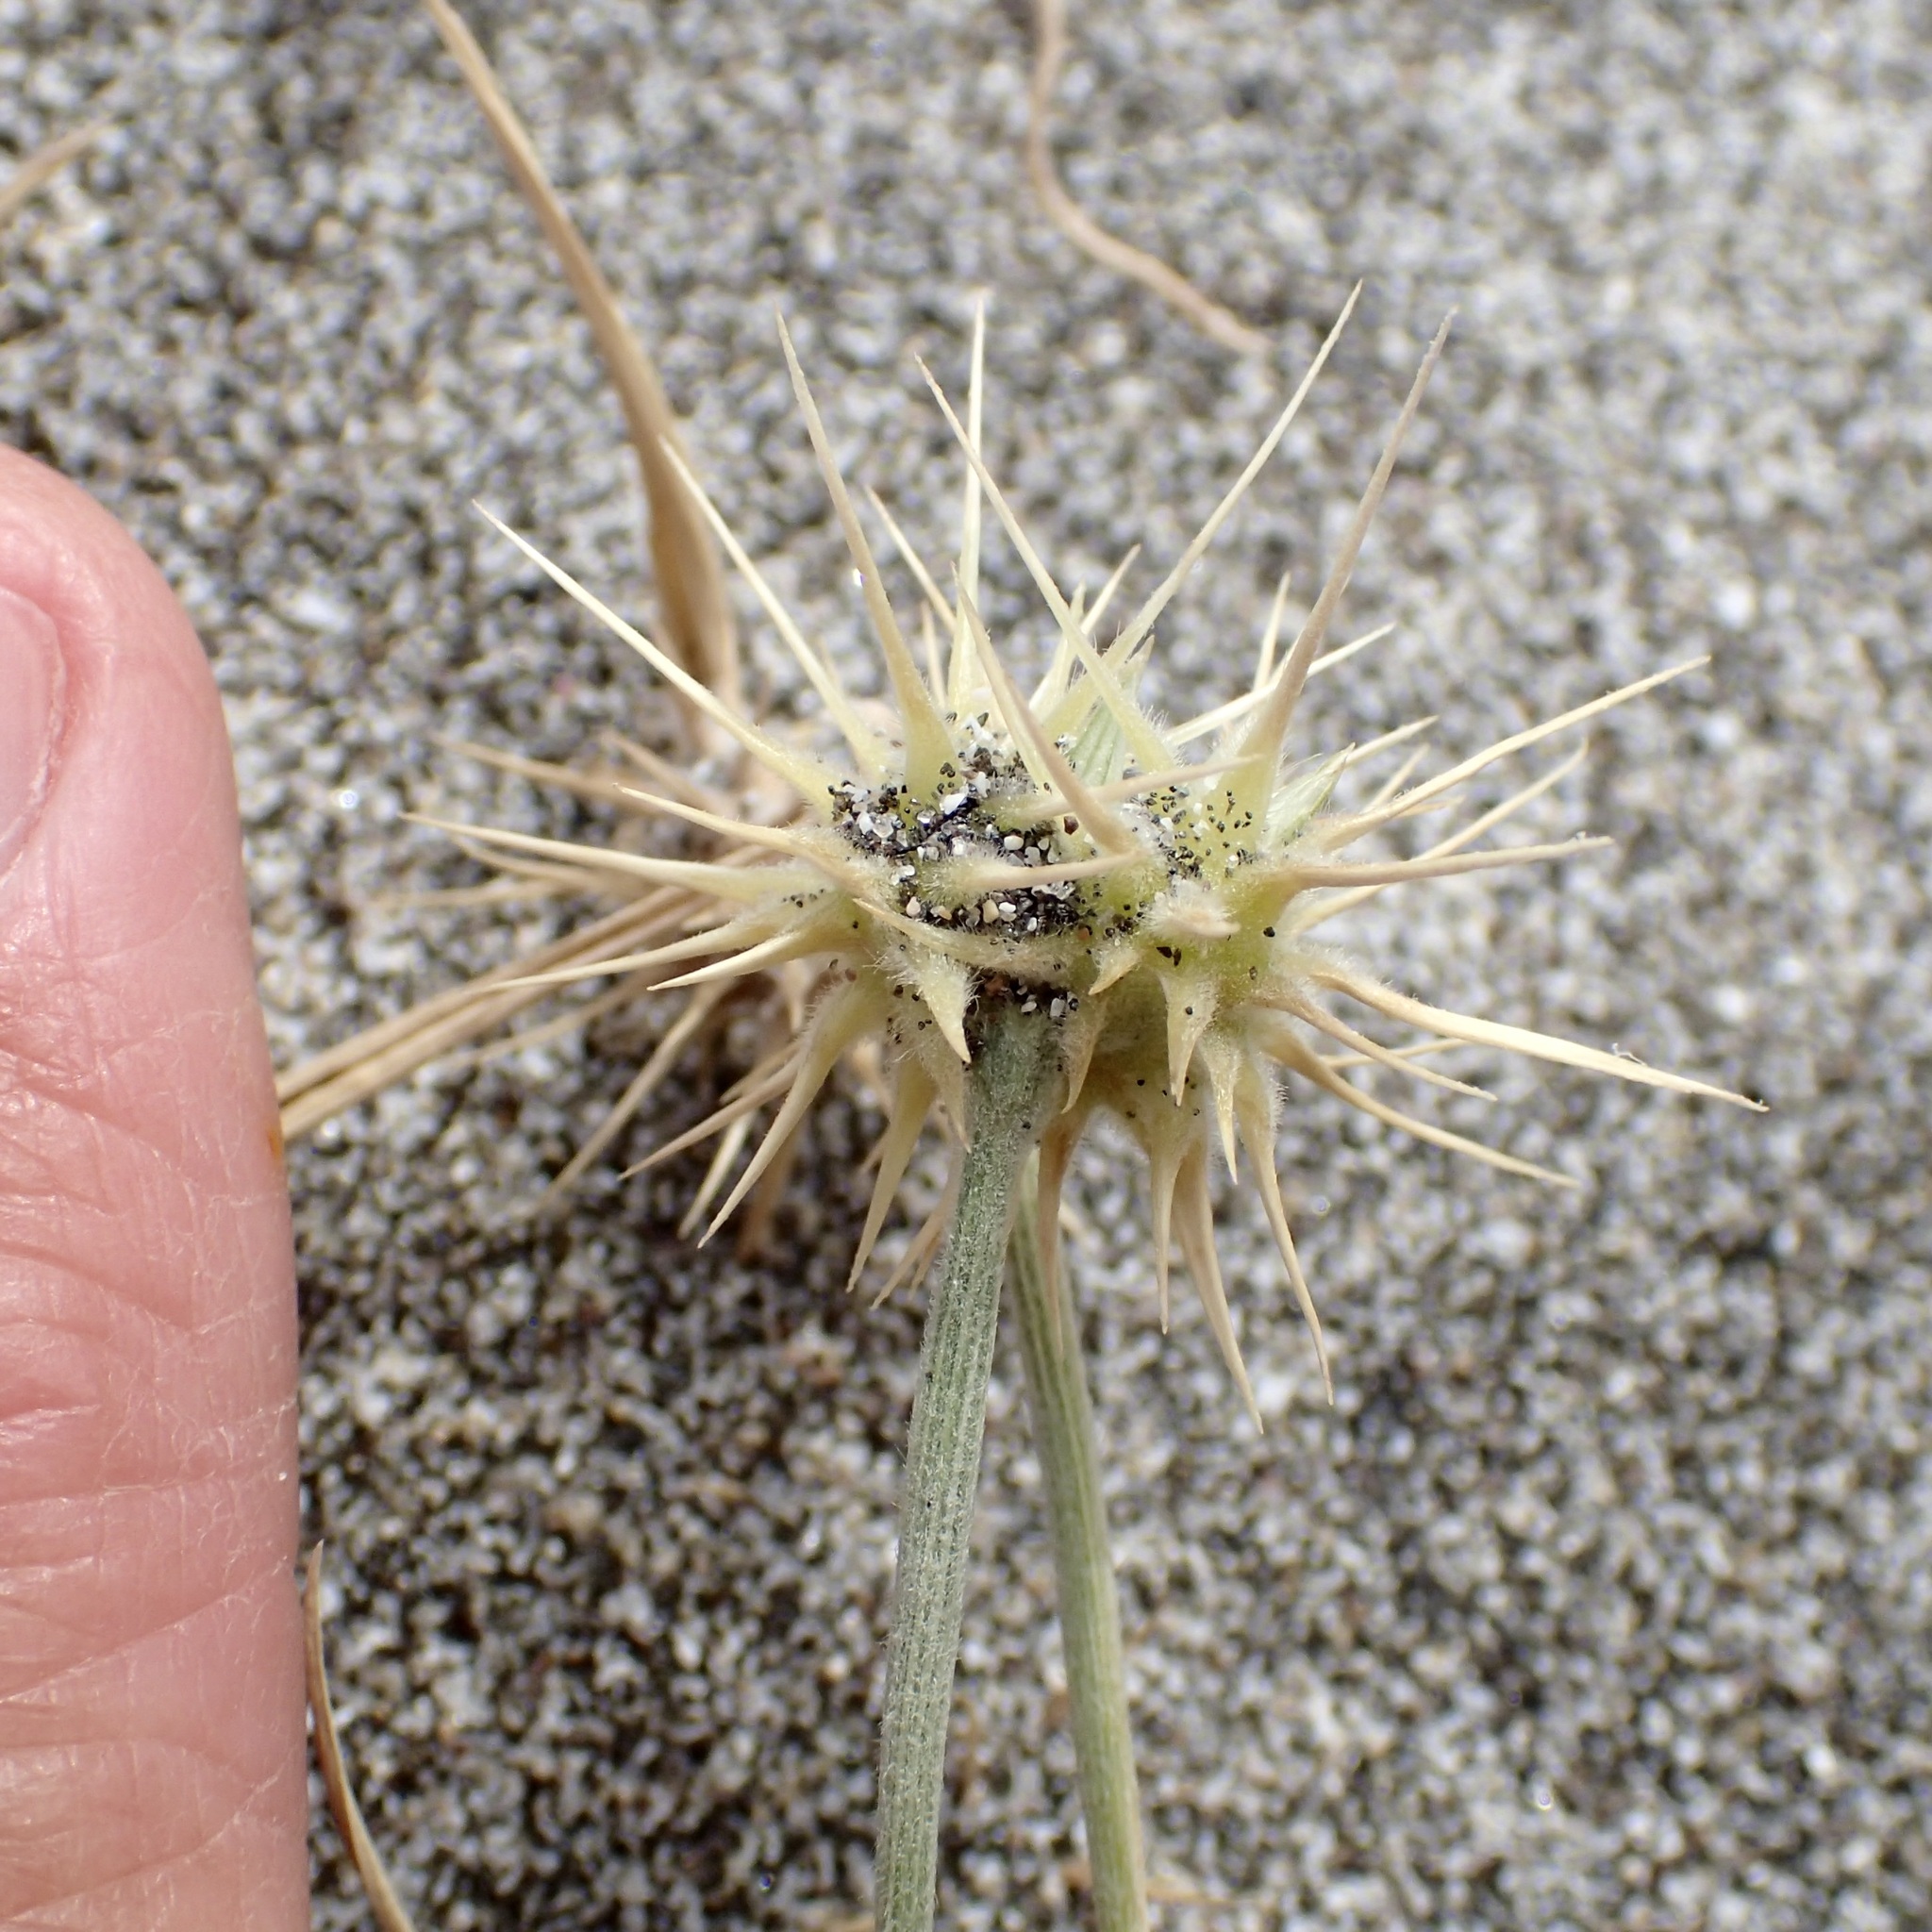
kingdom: Plantae
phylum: Tracheophyta
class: Liliopsida
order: Poales
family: Poaceae
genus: Cenchrus
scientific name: Cenchrus palmeri
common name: Giant sandbur
